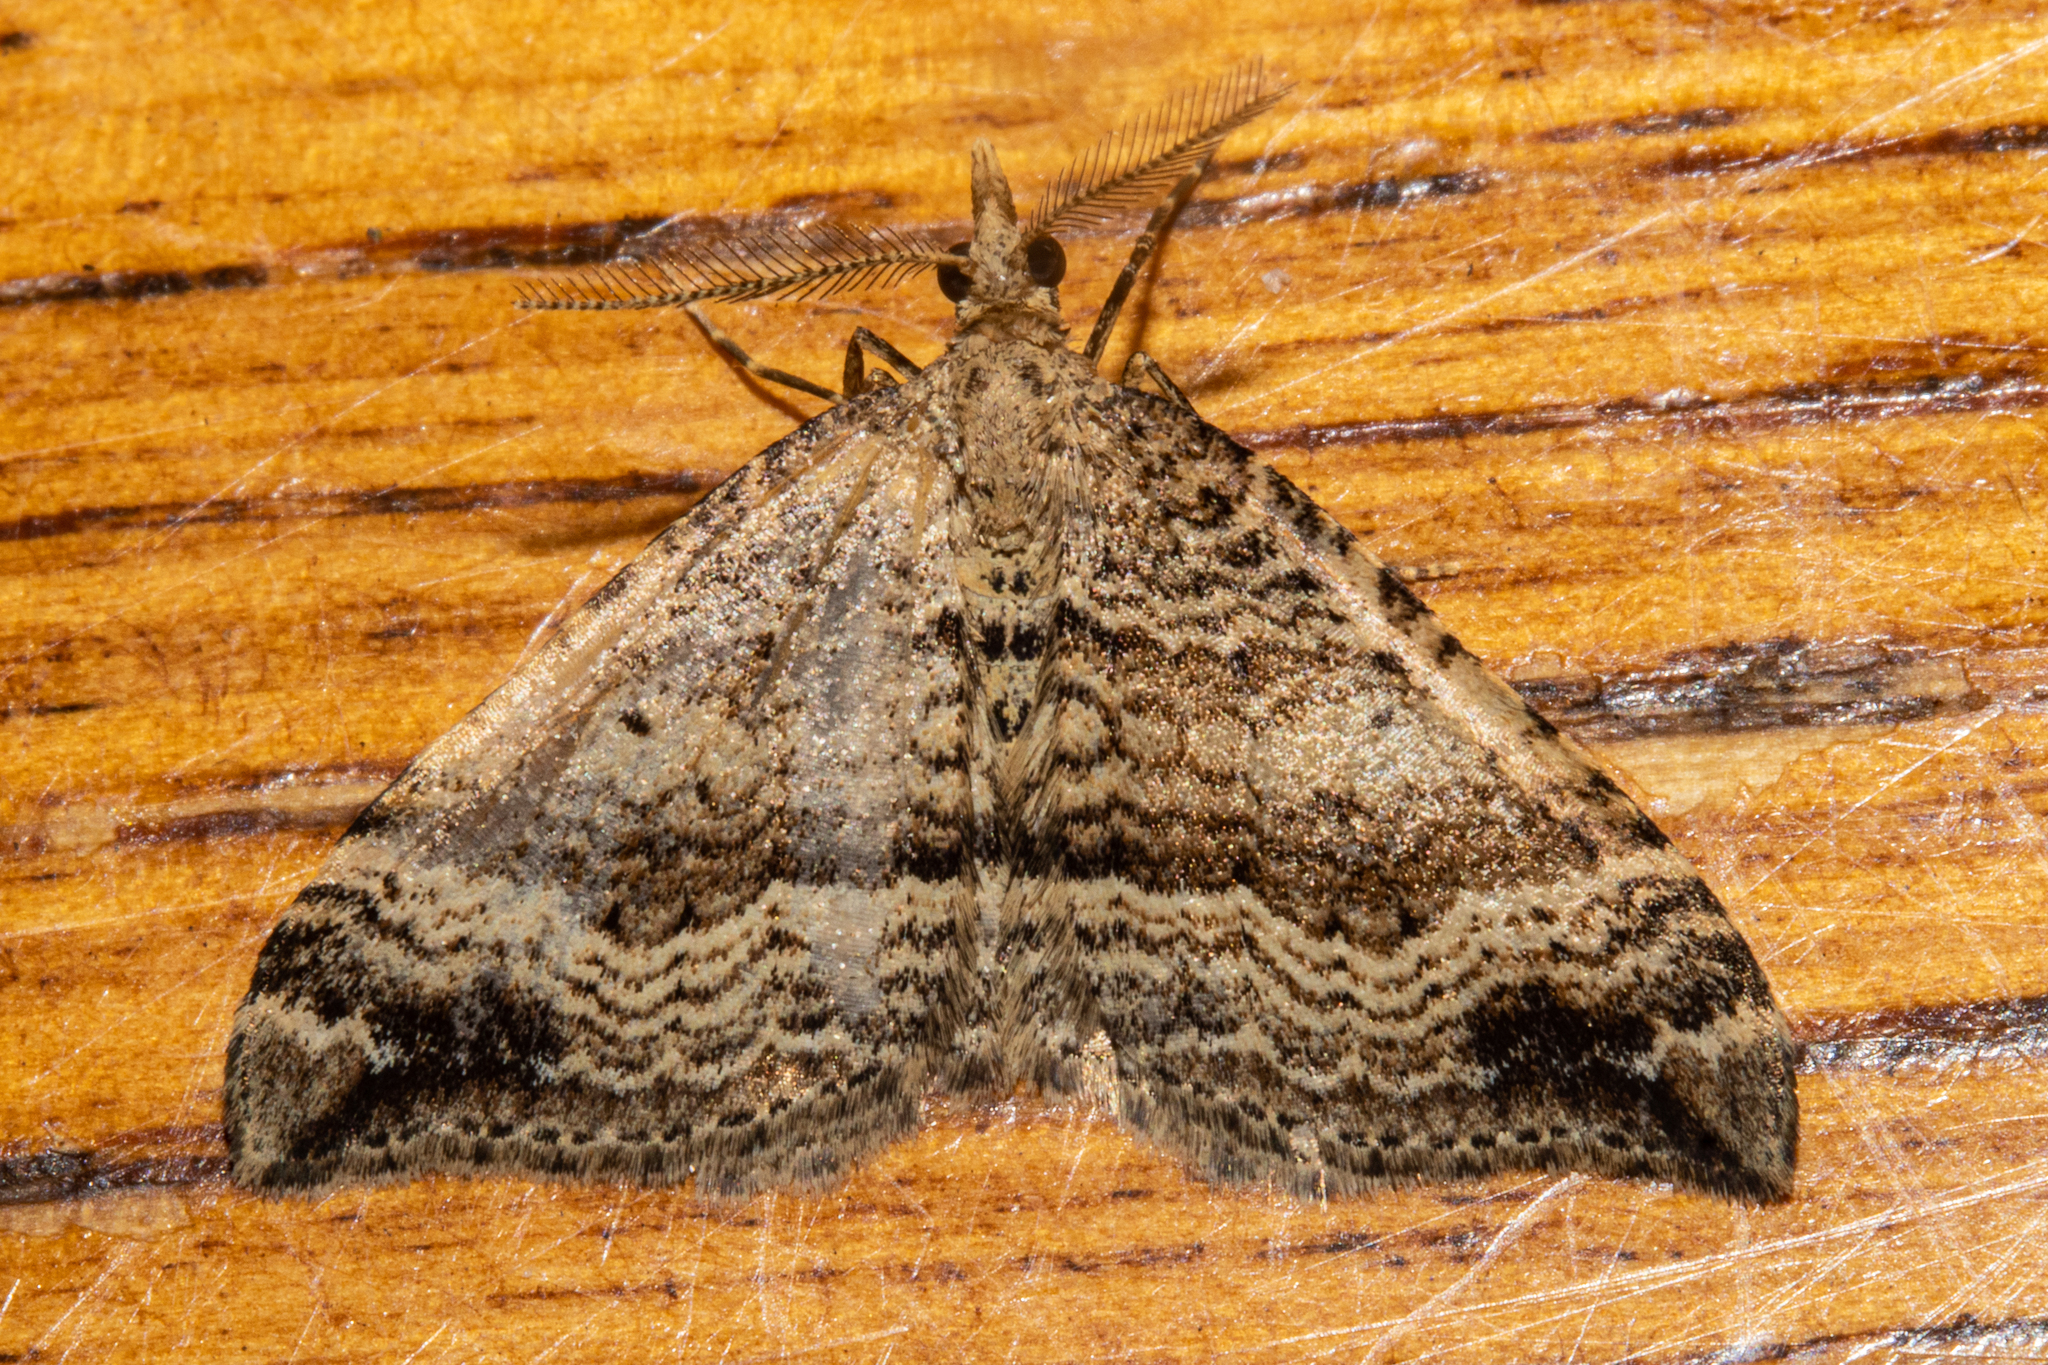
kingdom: Animalia
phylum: Arthropoda
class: Insecta
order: Lepidoptera
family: Geometridae
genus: Homodotis
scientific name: Homodotis falcata
